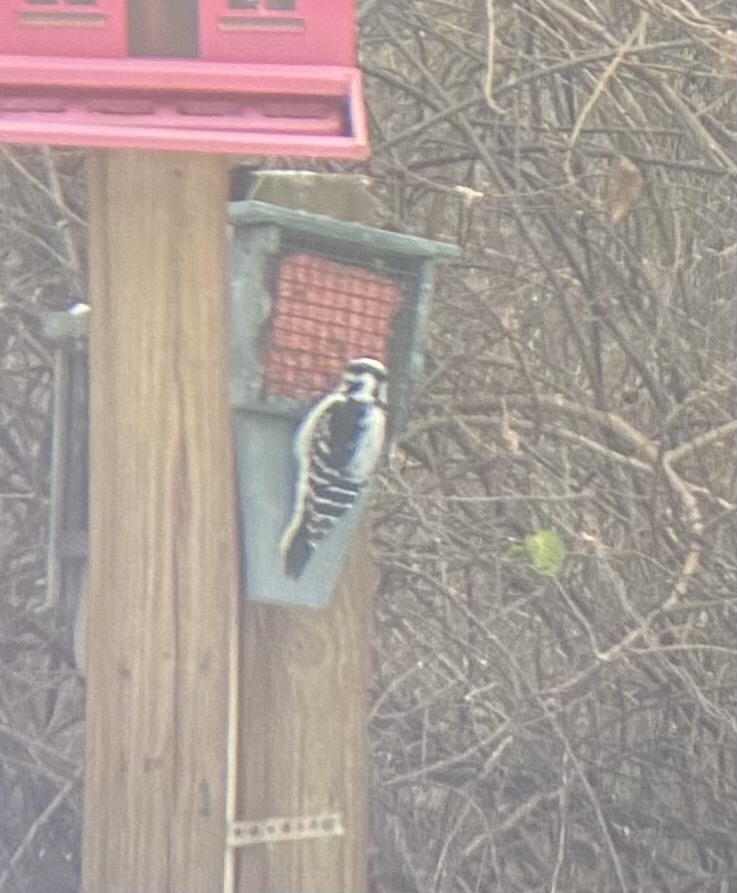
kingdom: Animalia
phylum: Chordata
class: Aves
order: Piciformes
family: Picidae
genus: Dryobates
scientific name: Dryobates pubescens
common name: Downy woodpecker
